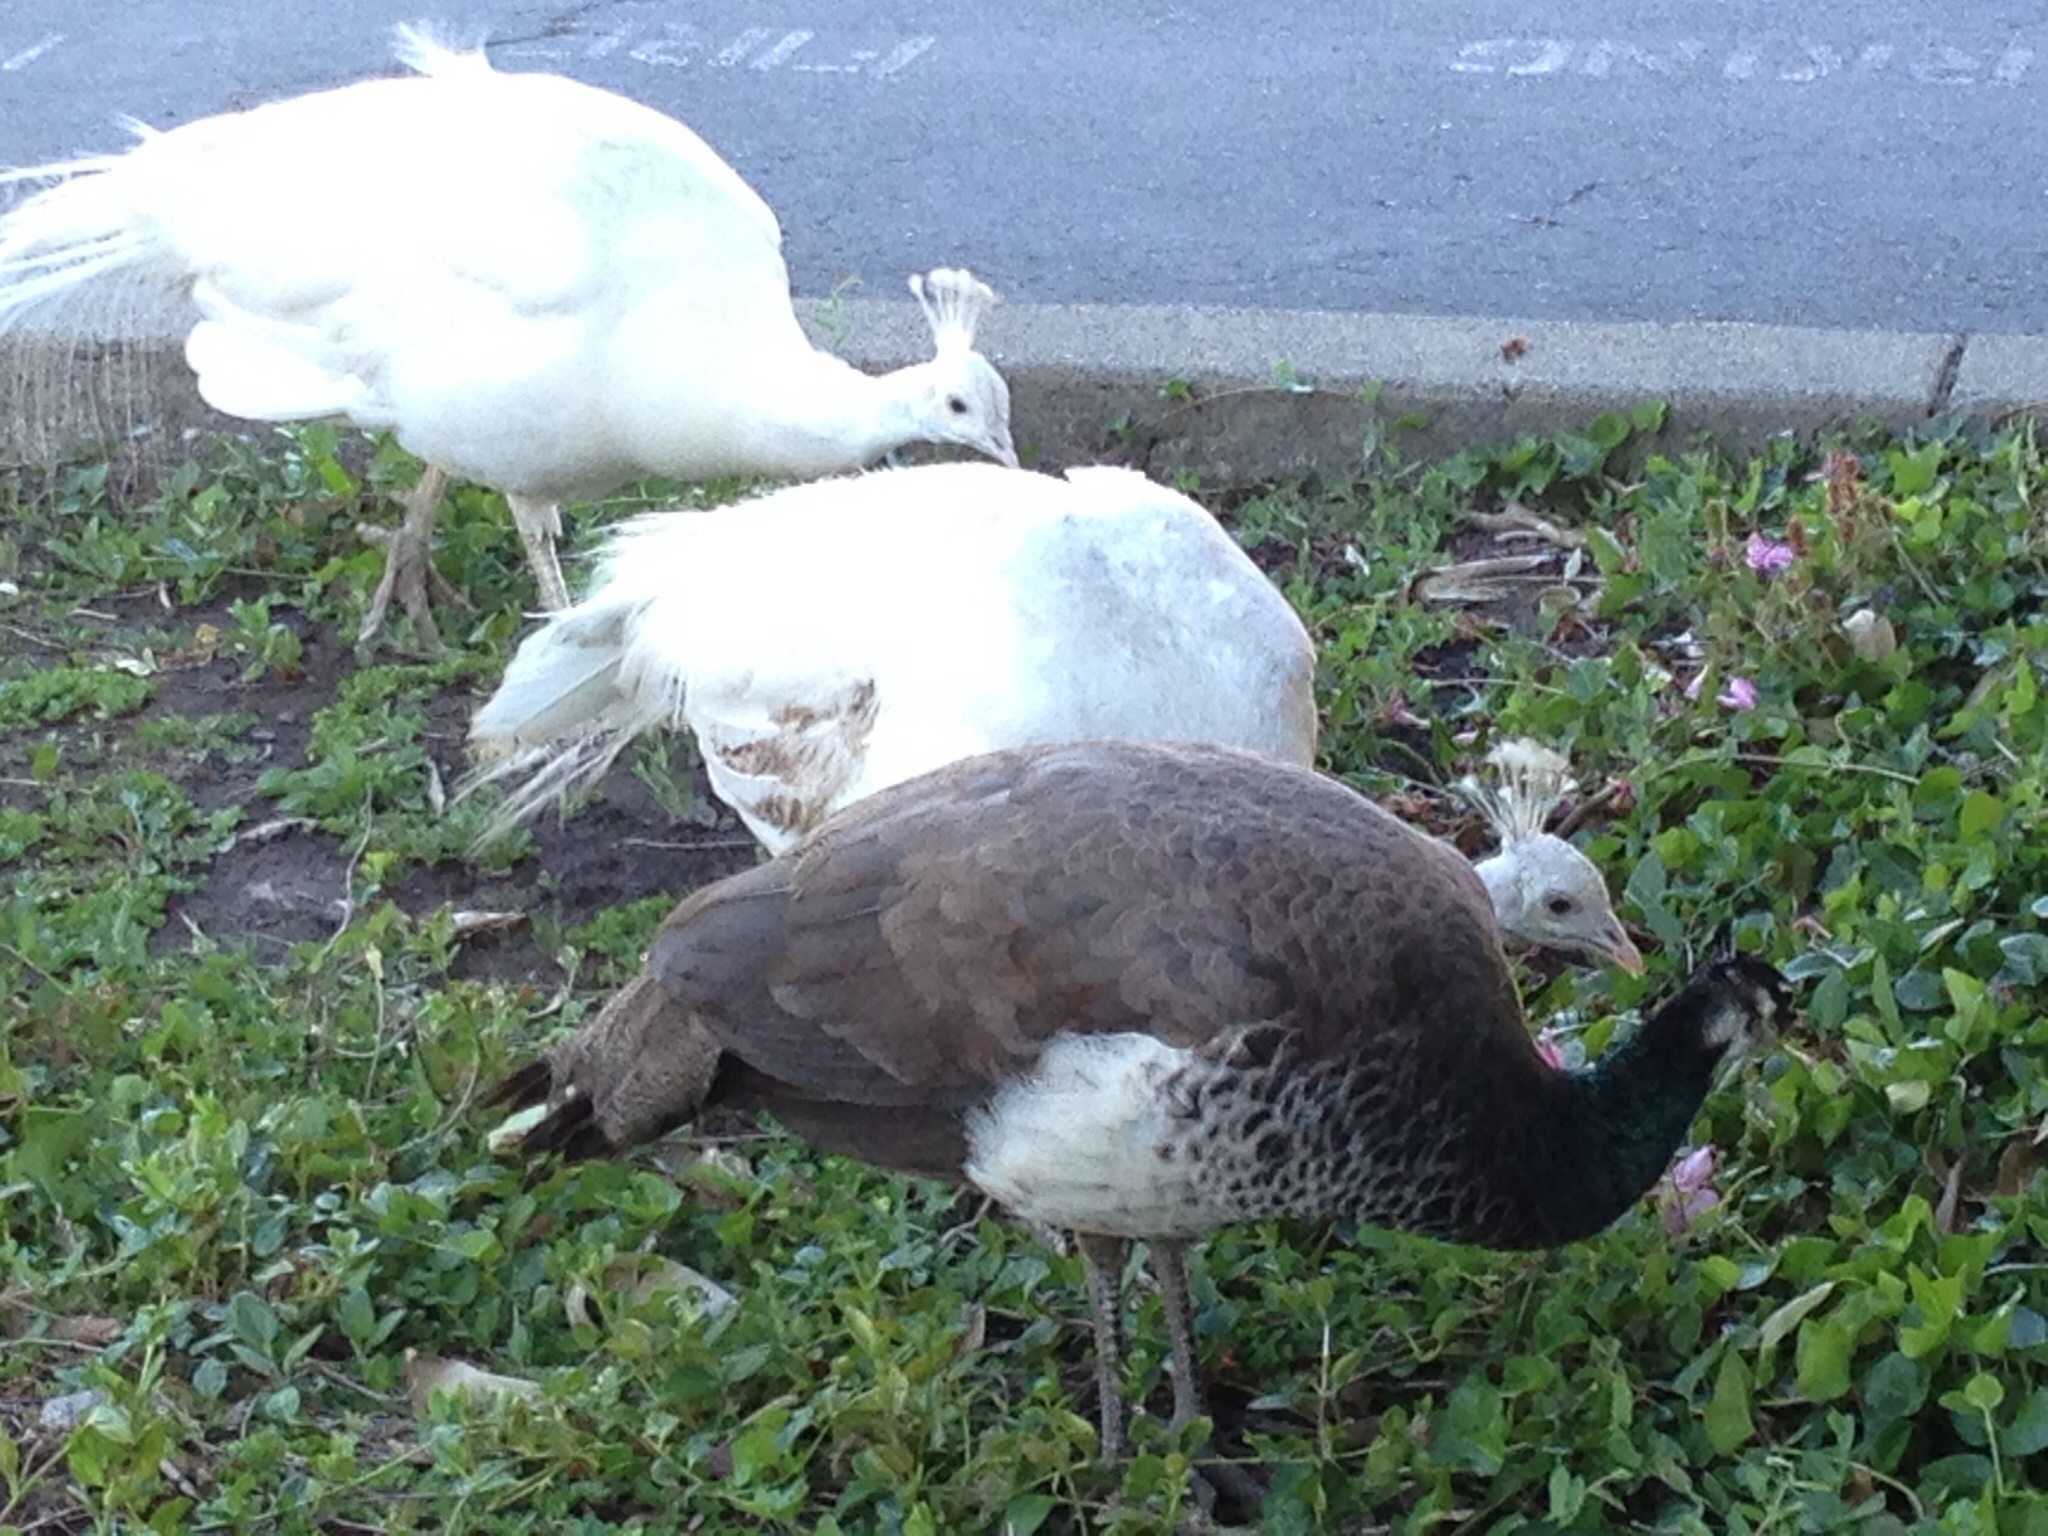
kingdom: Animalia
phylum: Chordata
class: Aves
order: Galliformes
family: Phasianidae
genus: Pavo
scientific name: Pavo cristatus
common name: Indian peafowl
